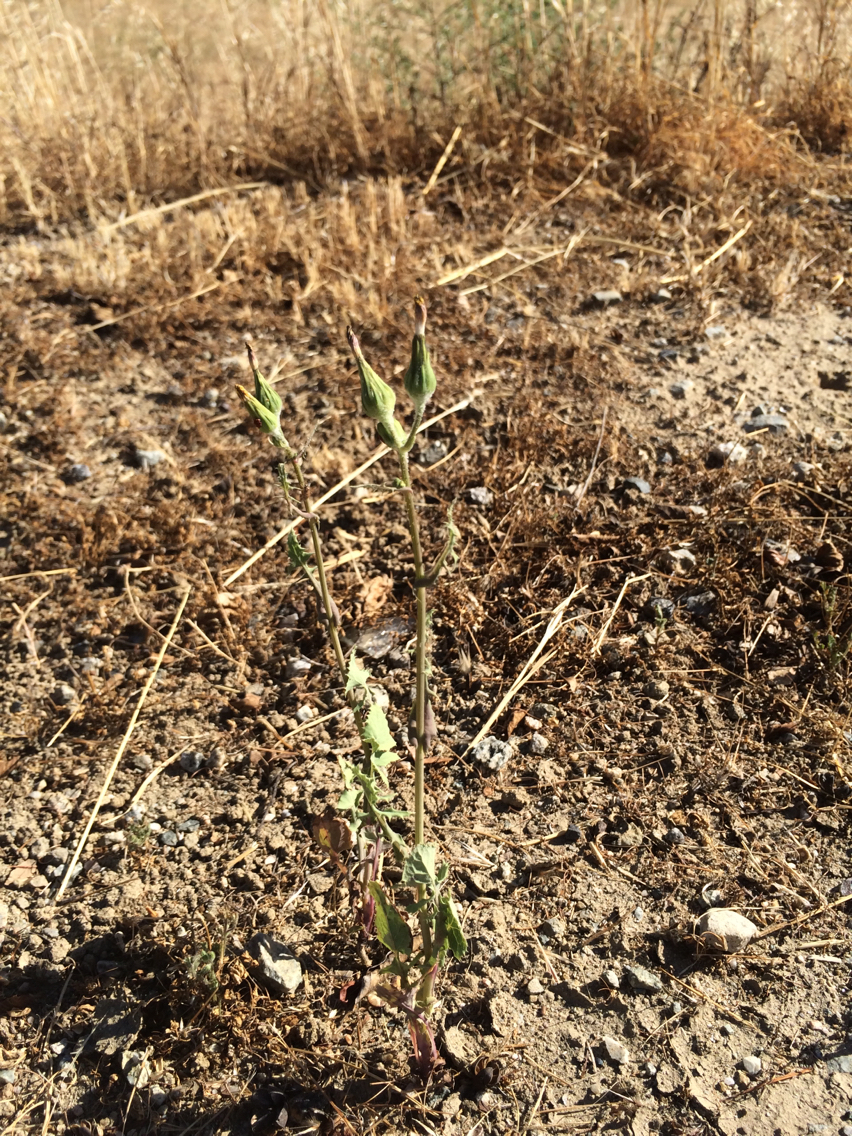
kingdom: Plantae
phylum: Tracheophyta
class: Magnoliopsida
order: Asterales
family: Asteraceae
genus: Sonchus
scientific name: Sonchus oleraceus
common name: Common sowthistle
